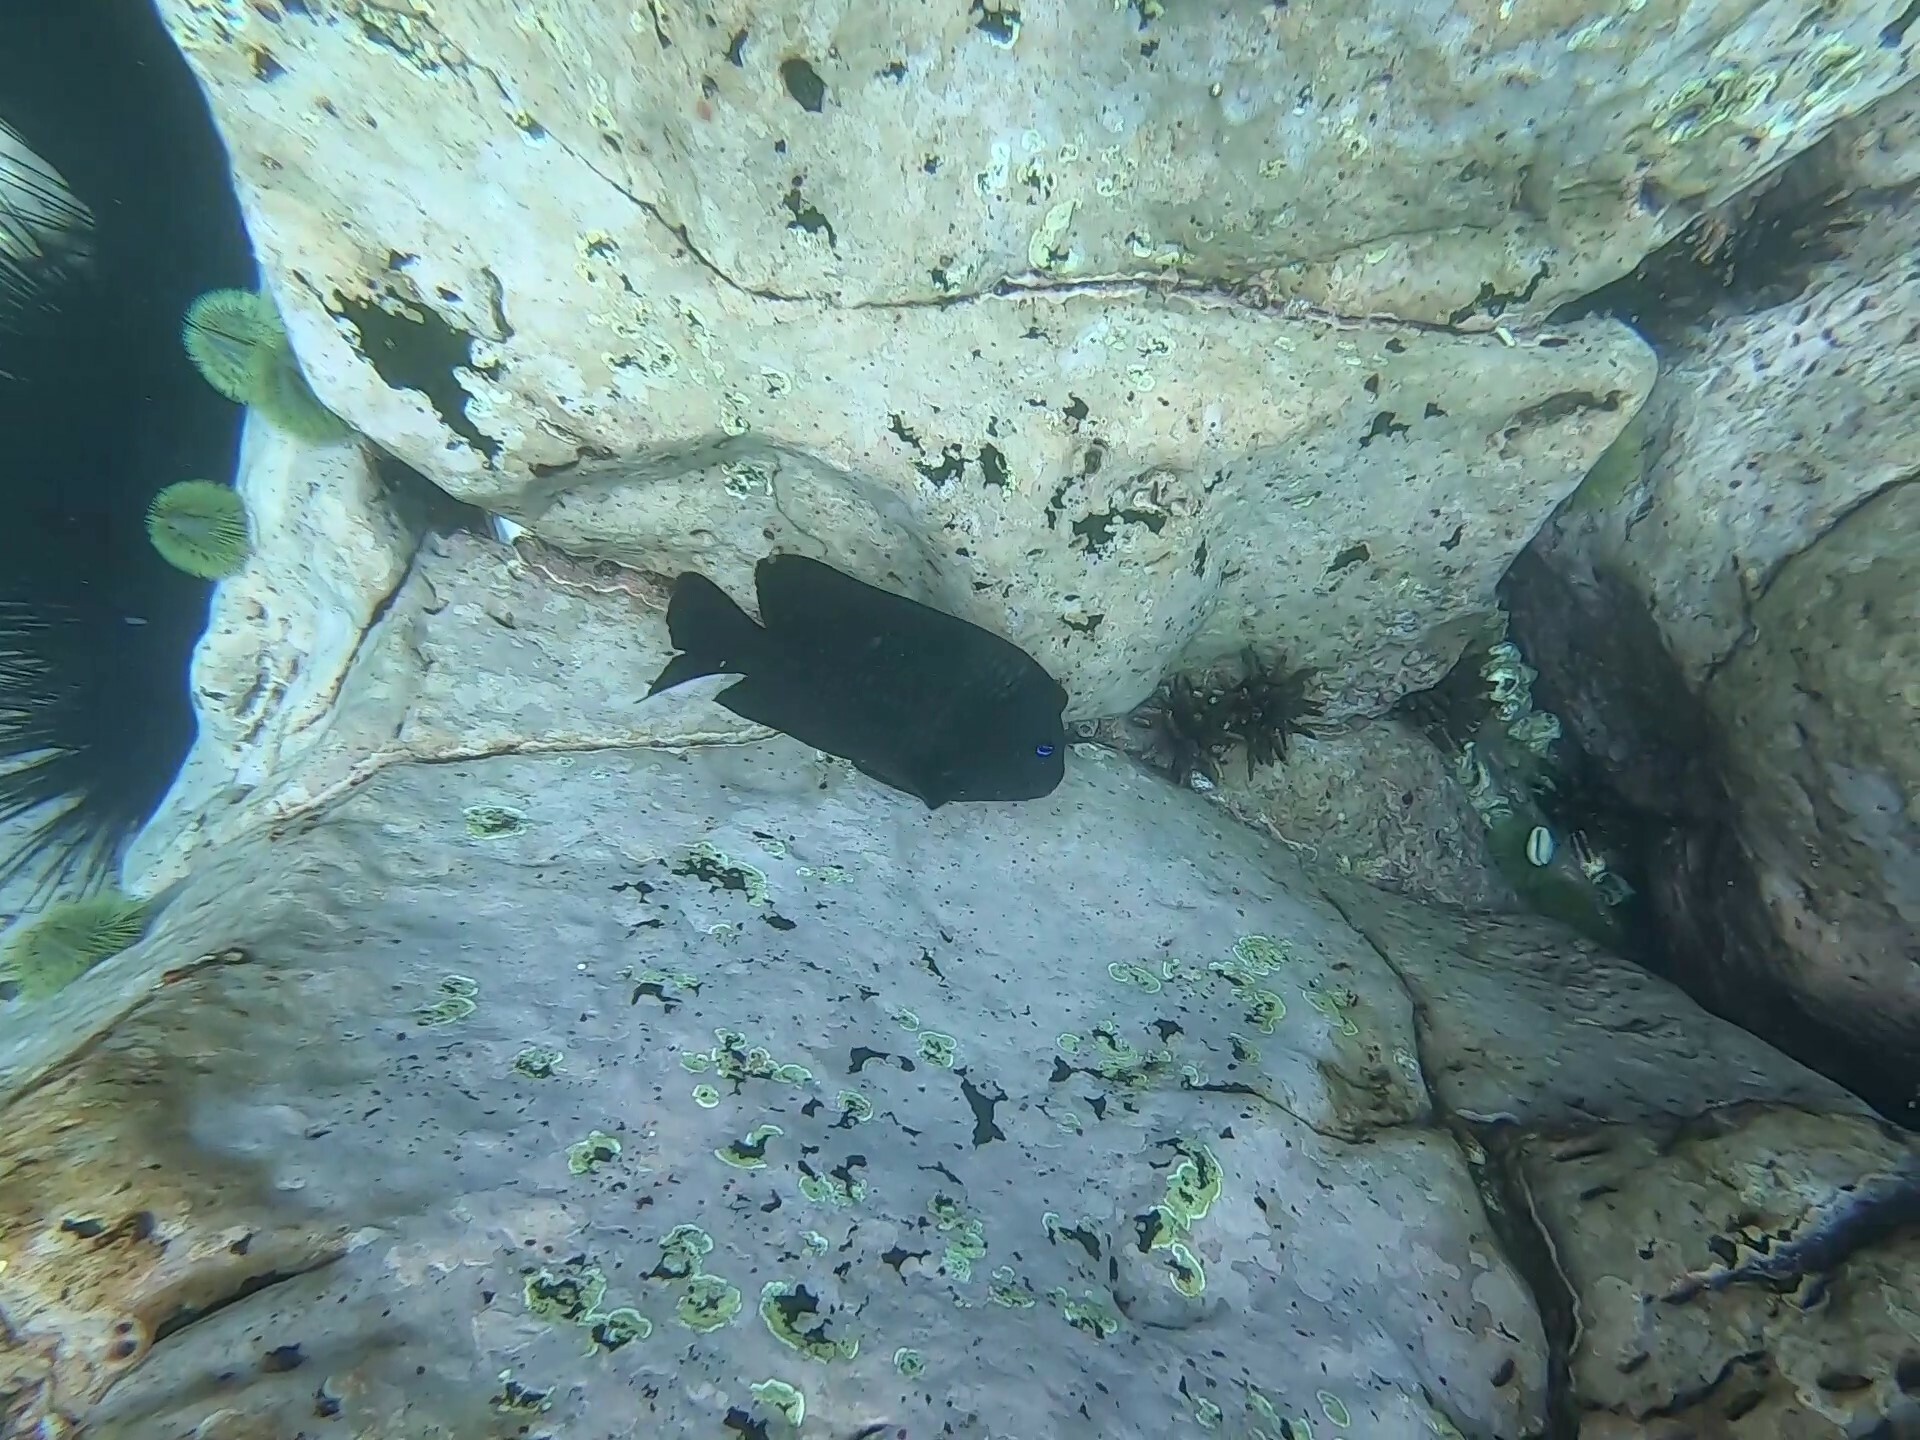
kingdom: Animalia
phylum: Chordata
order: Perciformes
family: Pomacentridae
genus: Microspathodon
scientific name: Microspathodon bairdii
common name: Bumphead damselfish
